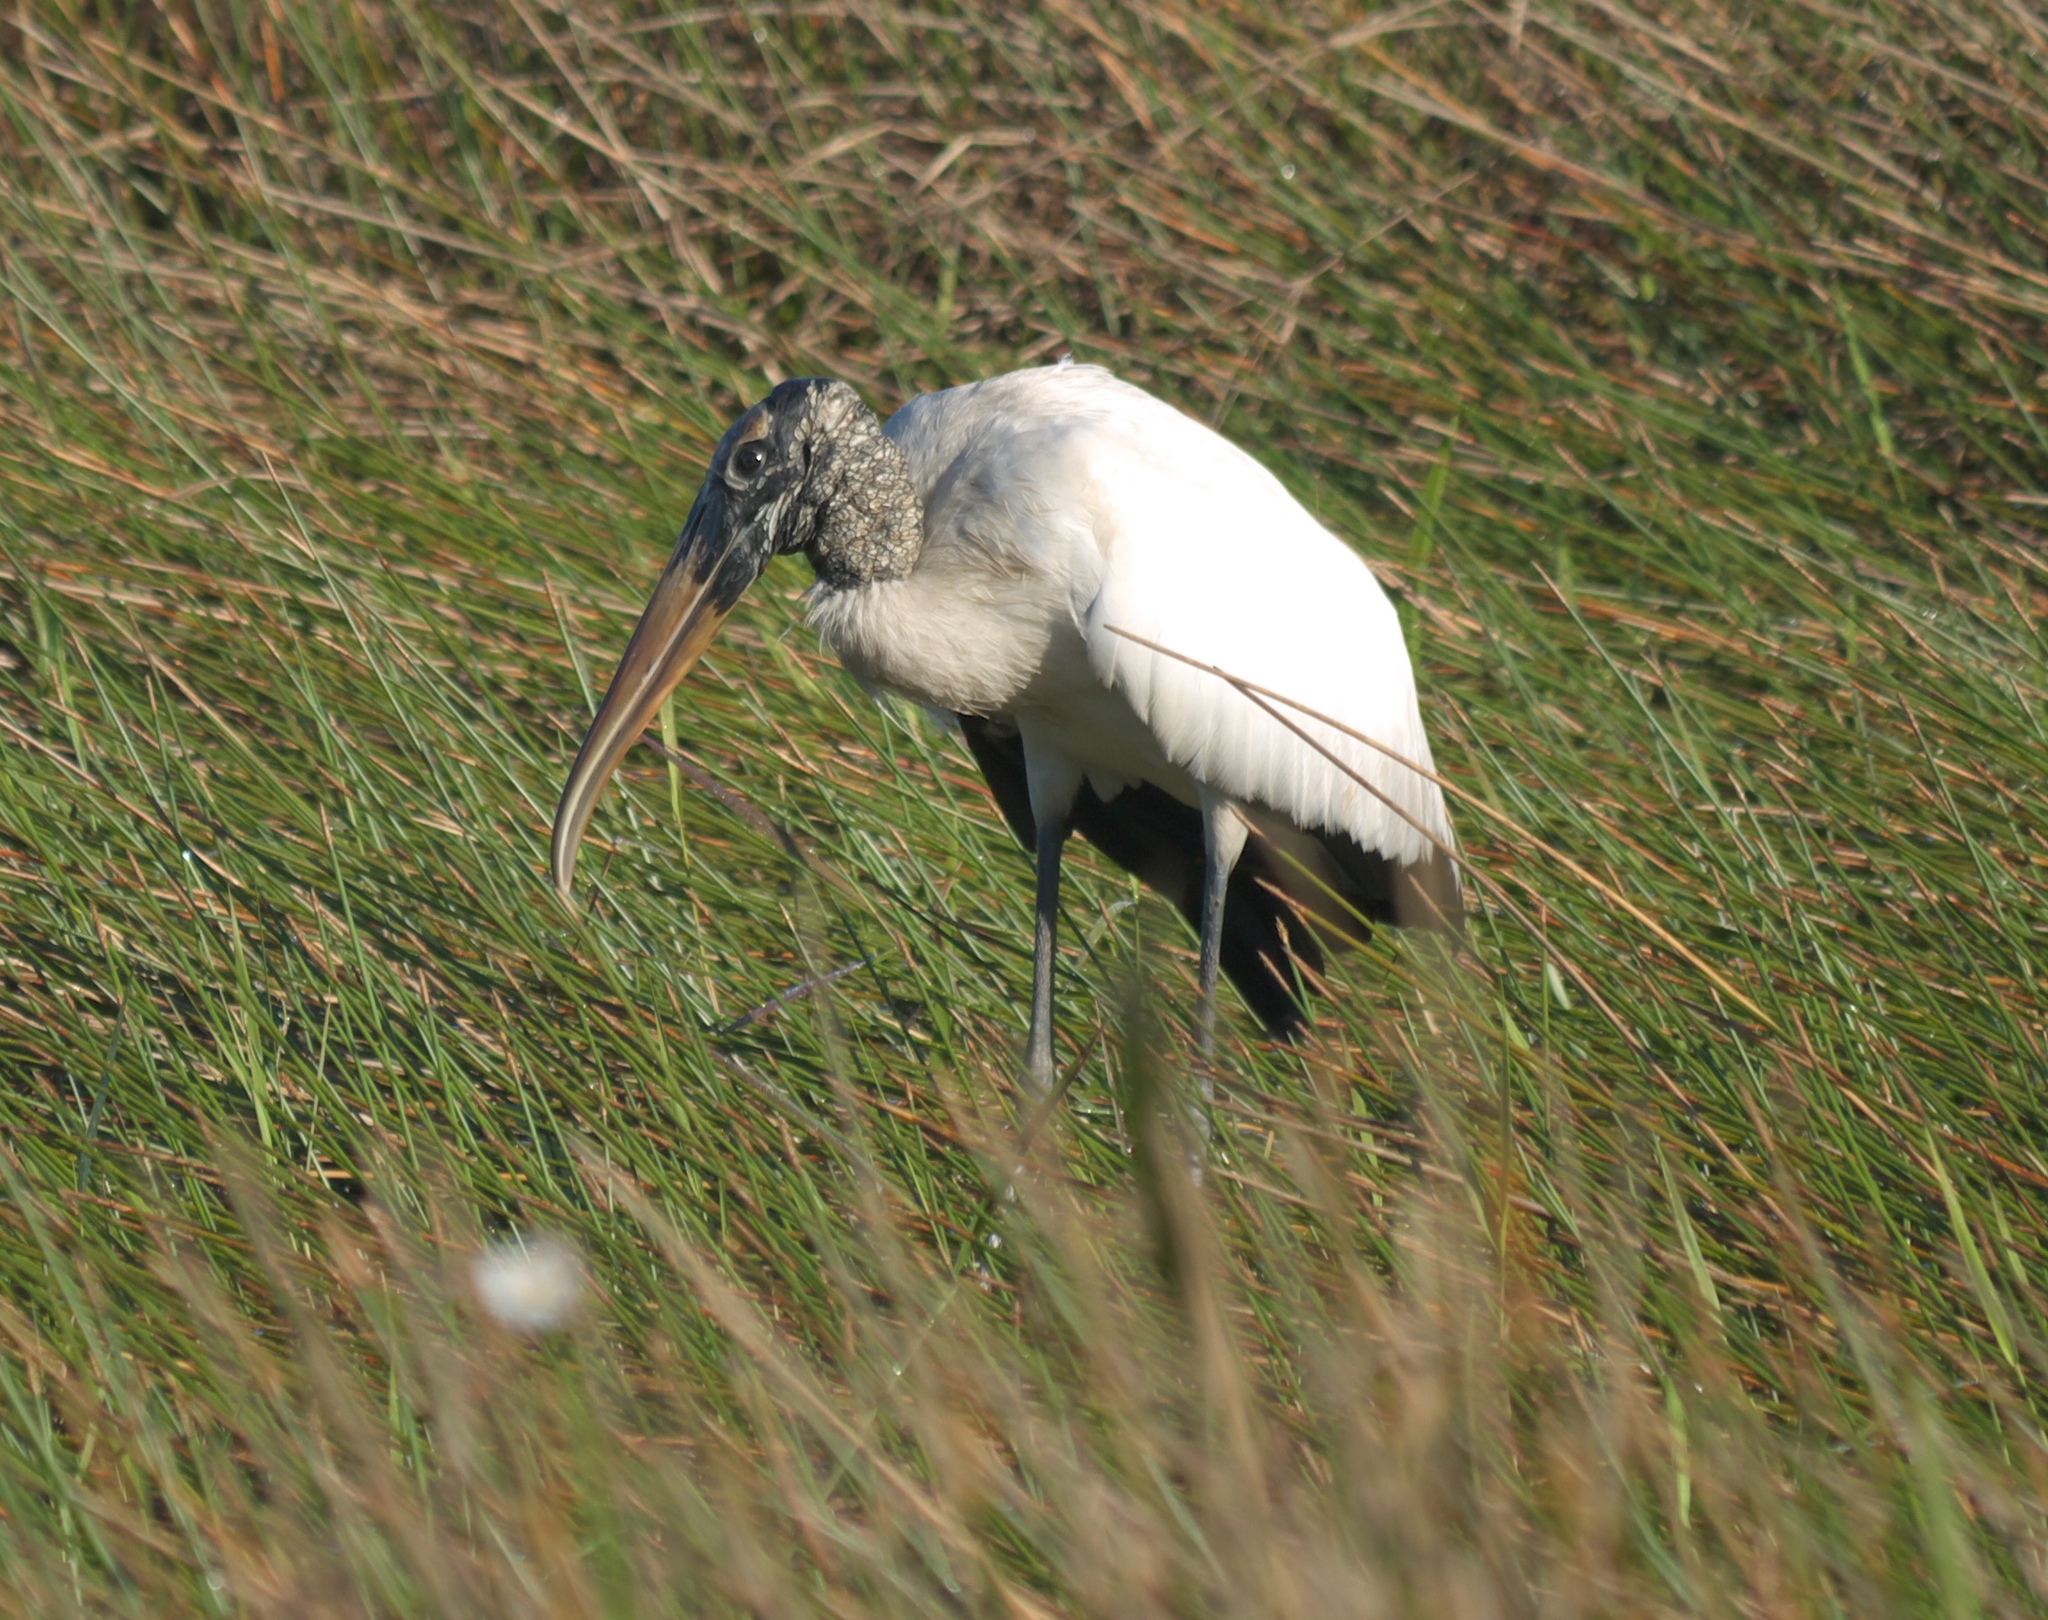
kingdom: Animalia
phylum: Chordata
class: Aves
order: Ciconiiformes
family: Ciconiidae
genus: Mycteria
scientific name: Mycteria americana
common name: Wood stork
